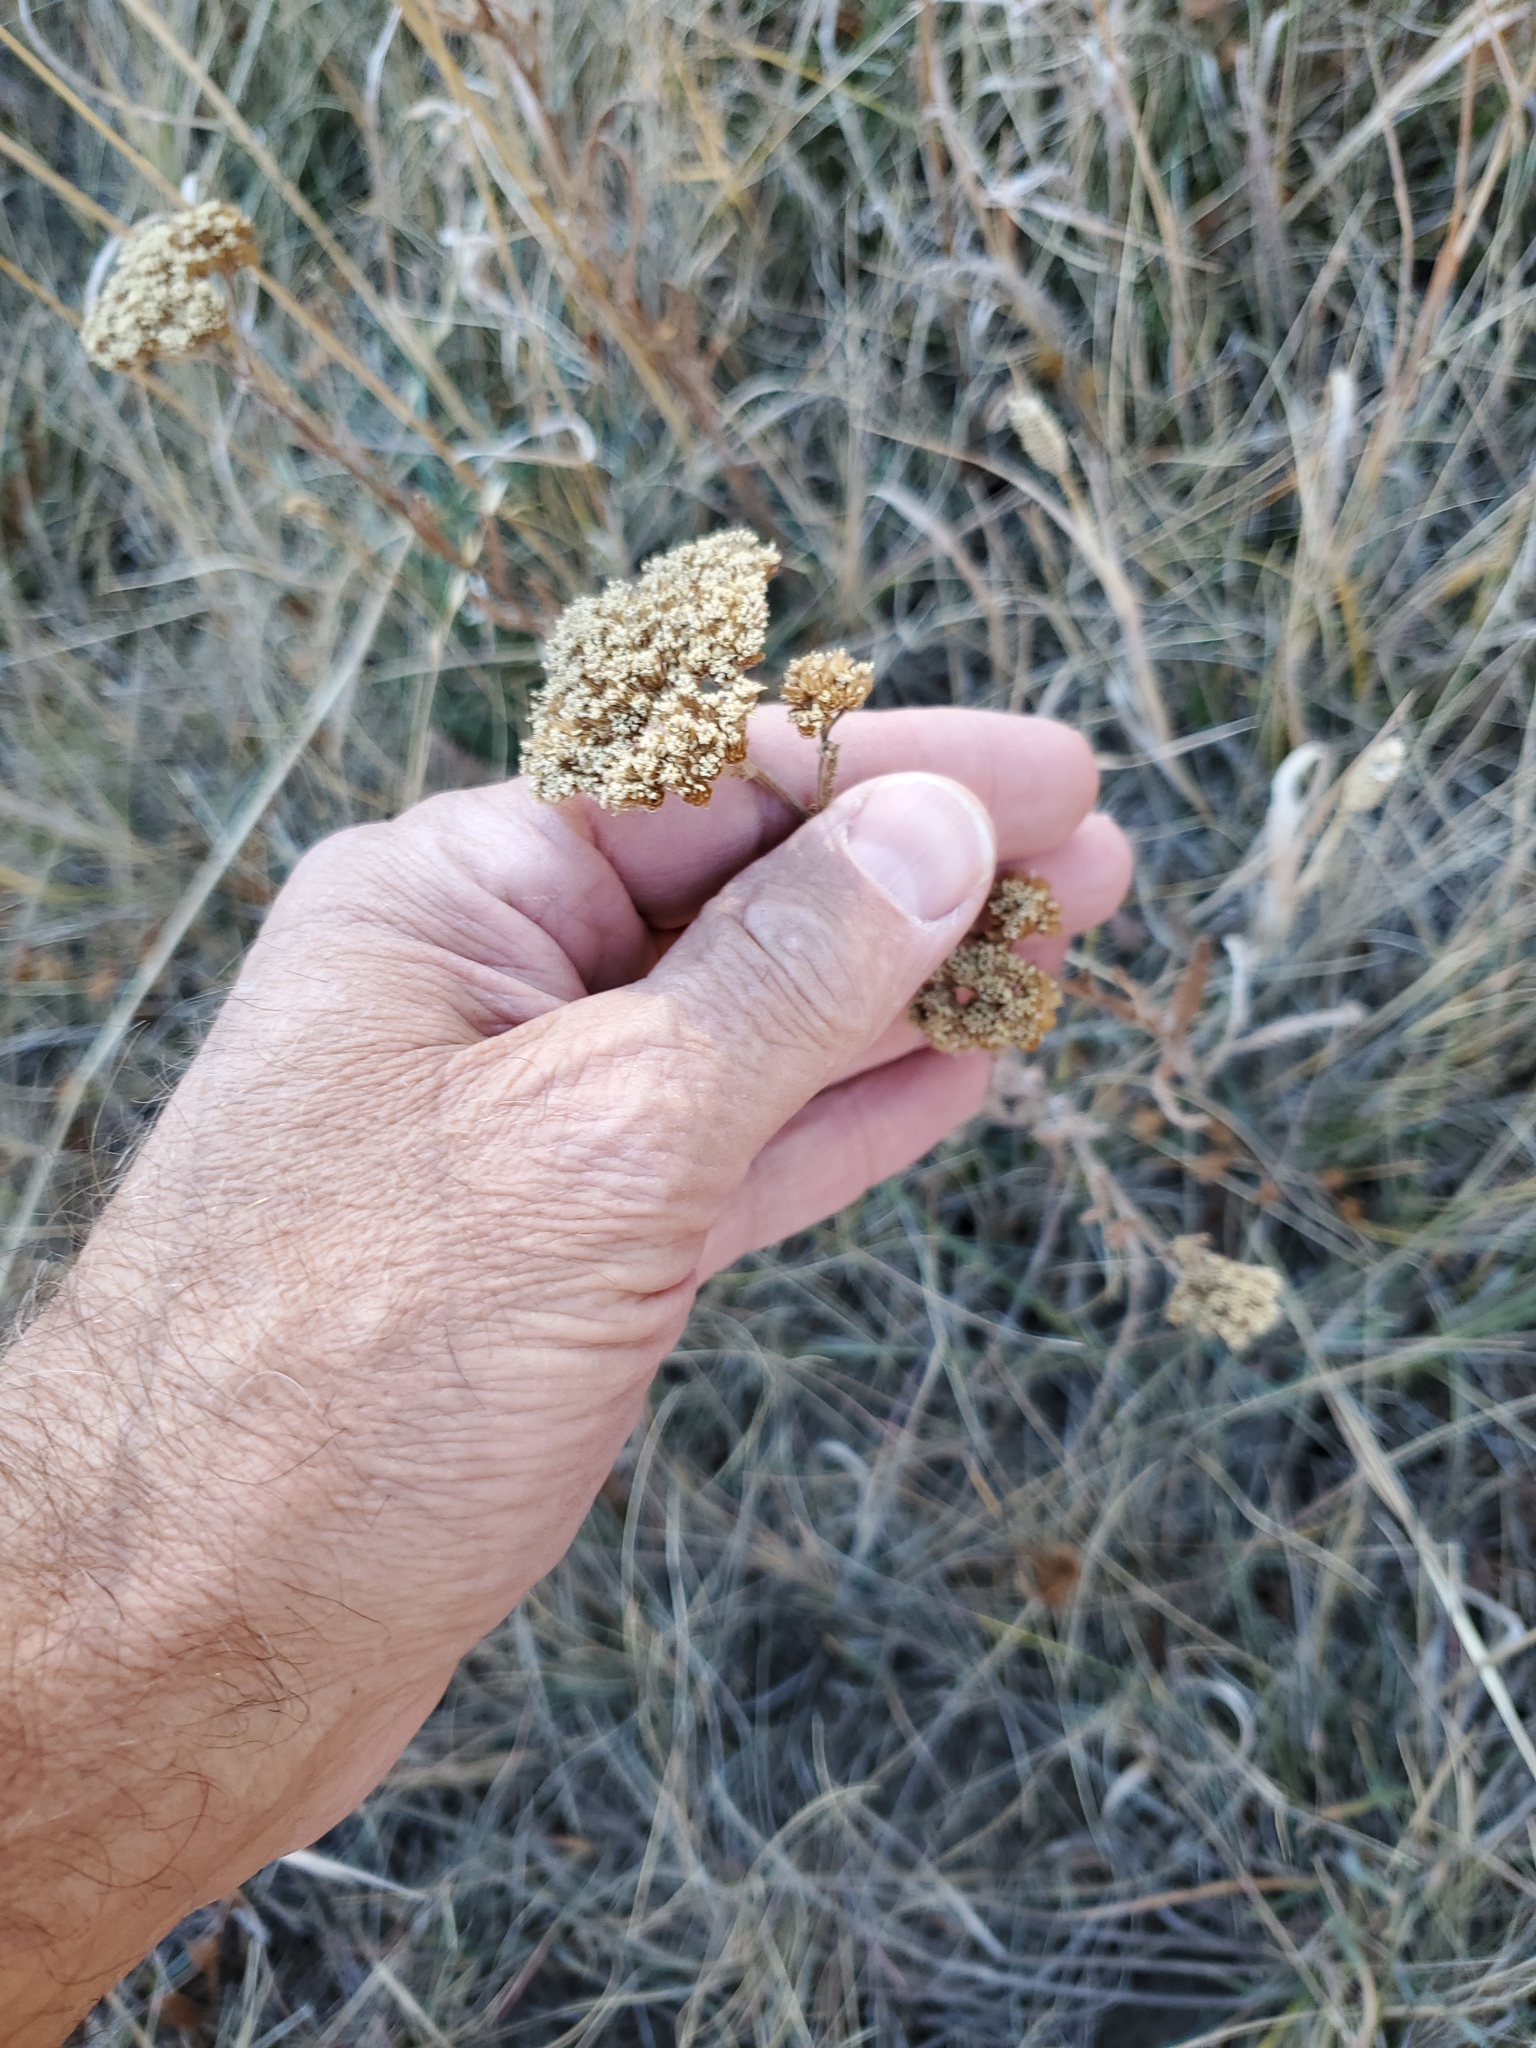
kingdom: Plantae
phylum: Tracheophyta
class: Magnoliopsida
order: Asterales
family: Asteraceae
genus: Achillea
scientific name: Achillea millefolium
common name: Yarrow
